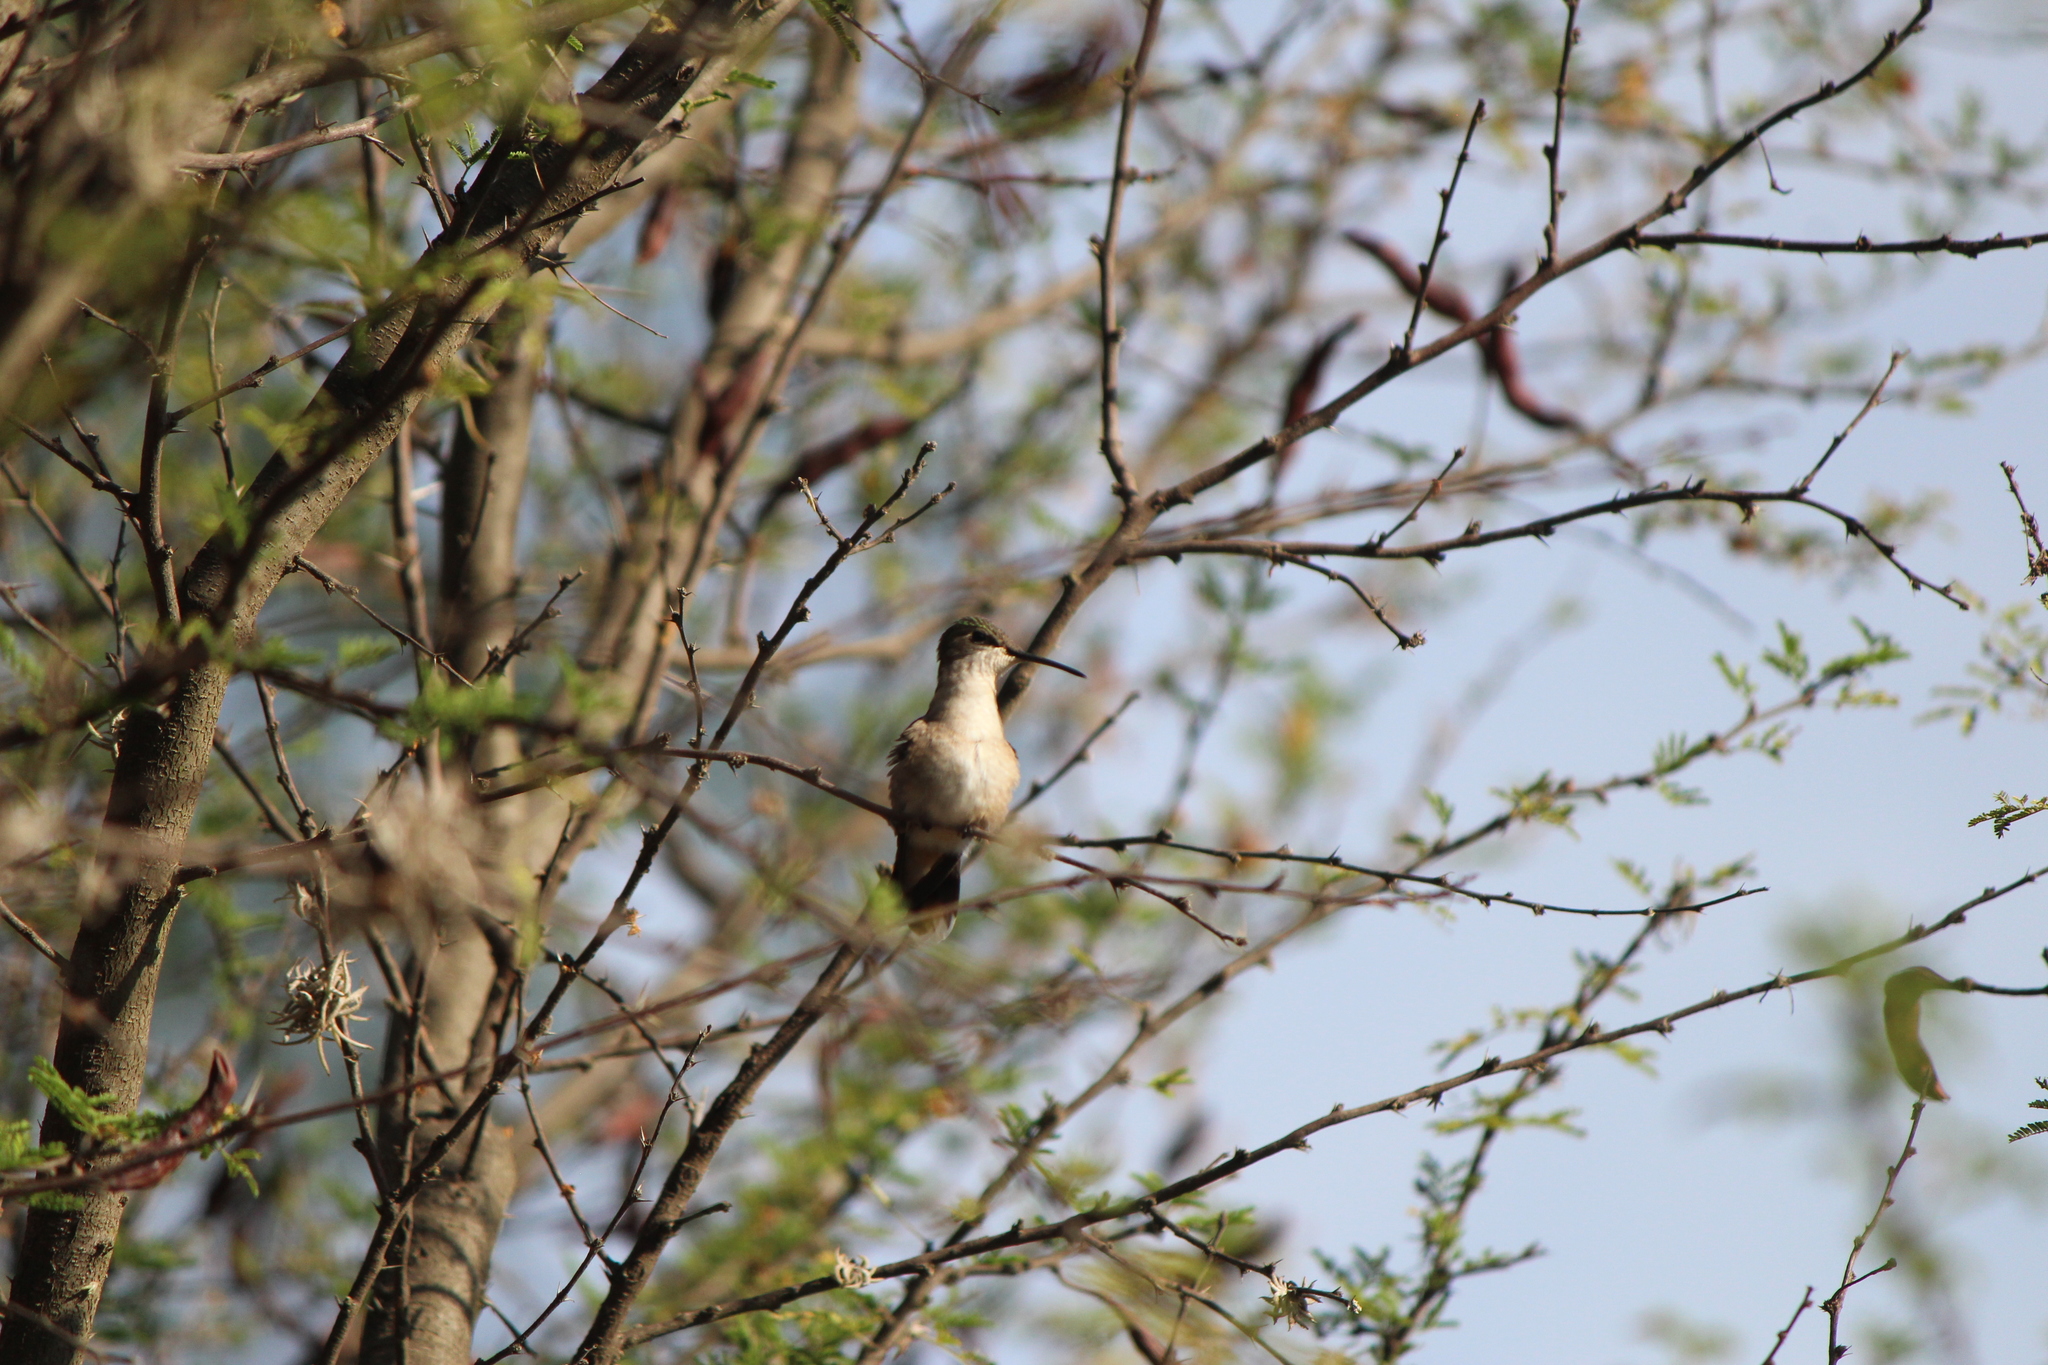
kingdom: Animalia
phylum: Chordata
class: Aves
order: Apodiformes
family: Trochilidae
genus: Archilochus
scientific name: Archilochus colubris
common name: Ruby-throated hummingbird
